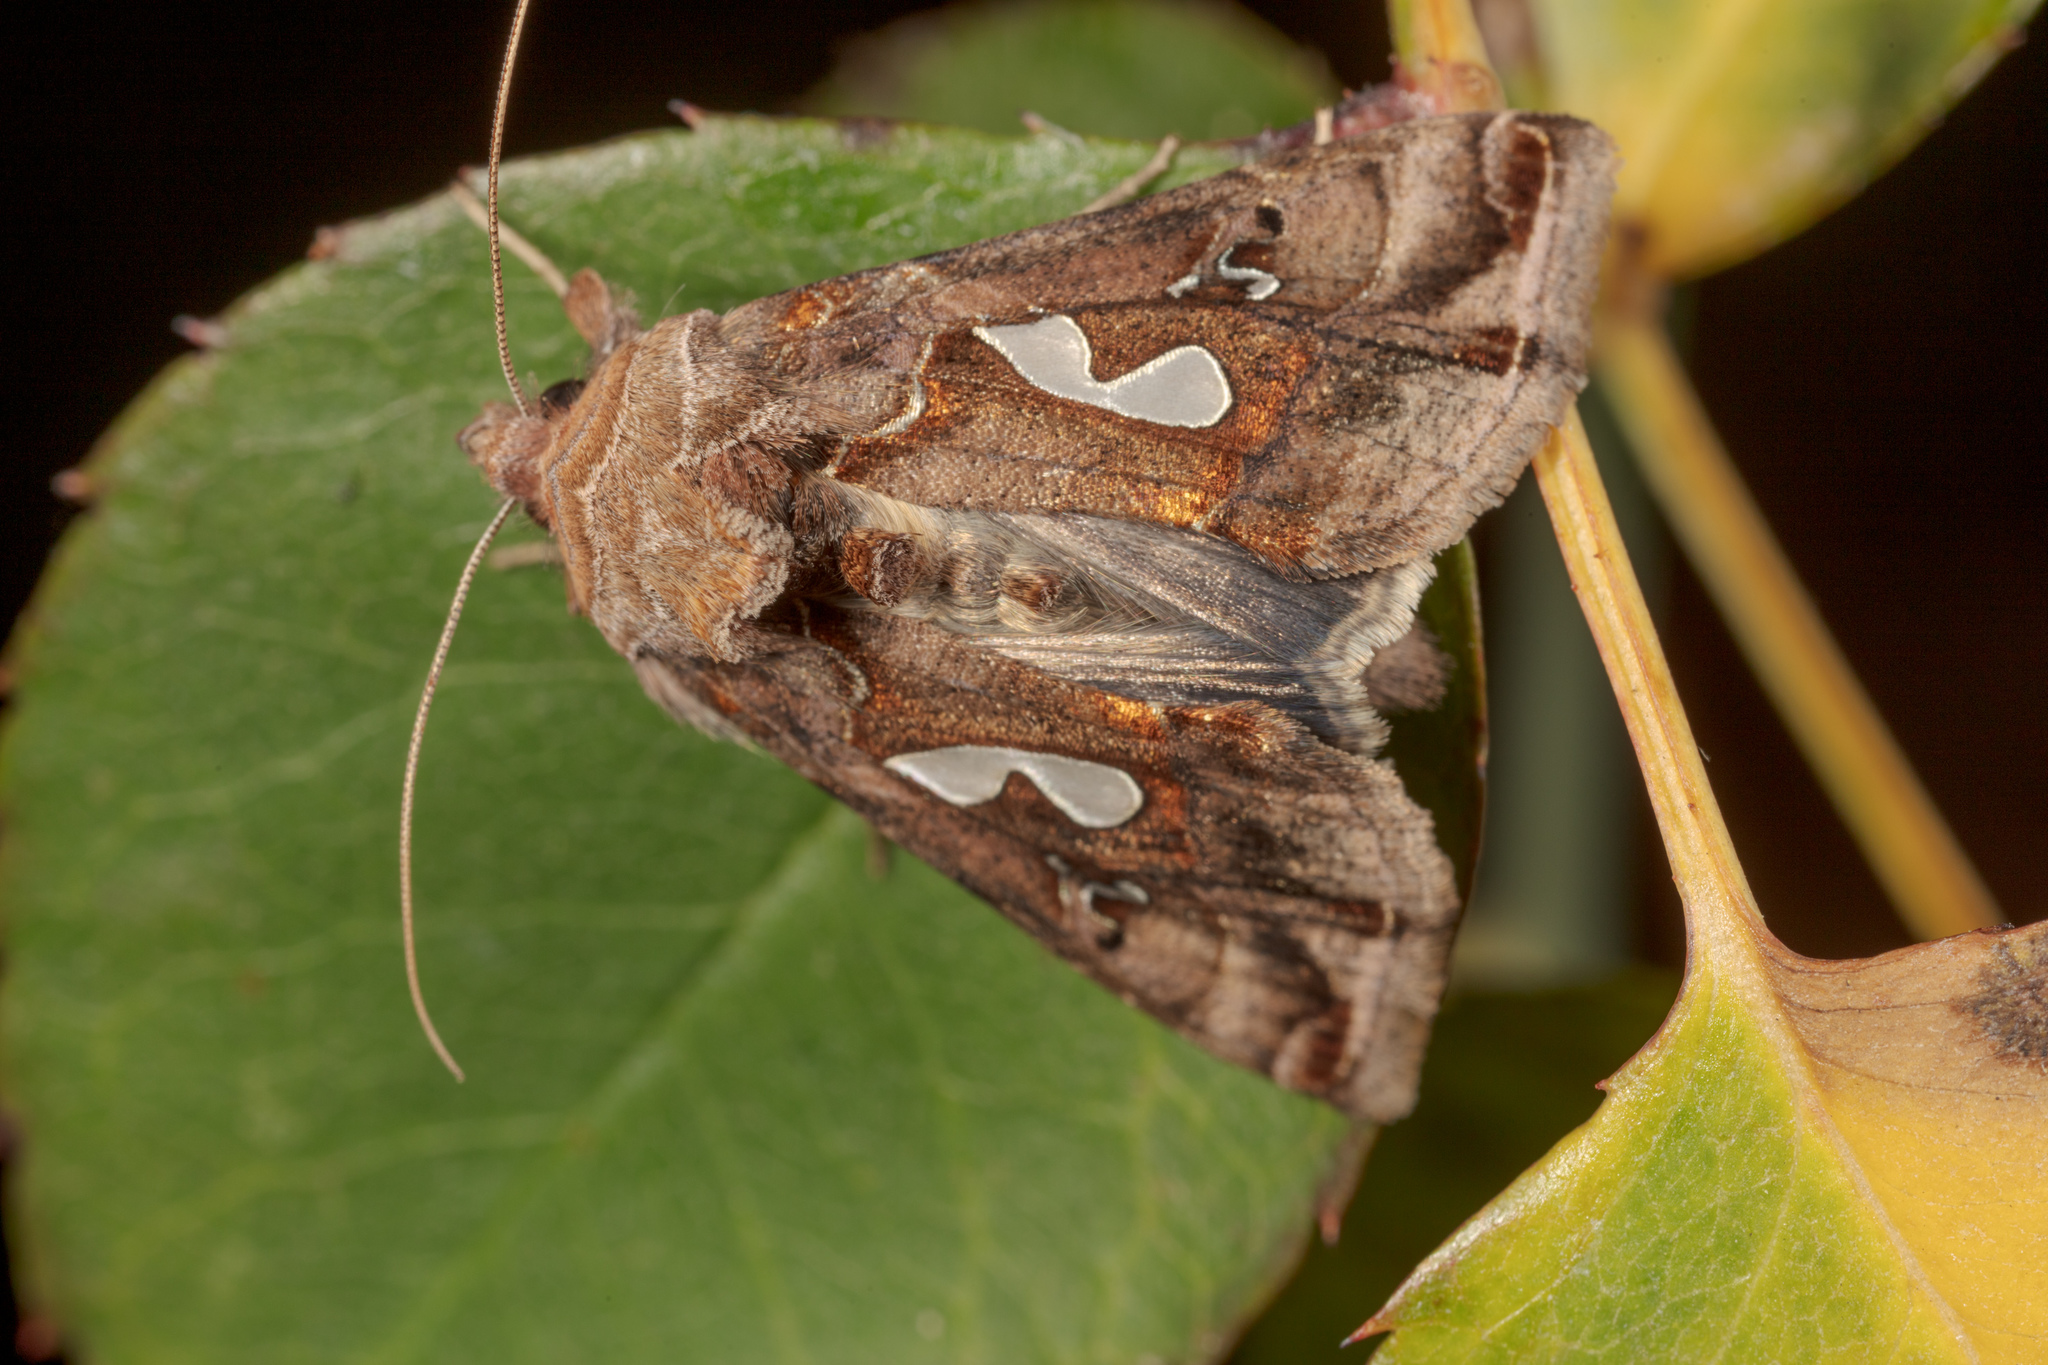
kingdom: Animalia
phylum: Arthropoda
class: Insecta
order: Lepidoptera
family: Noctuidae
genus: Megalographa
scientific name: Megalographa biloba
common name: Cutworm
